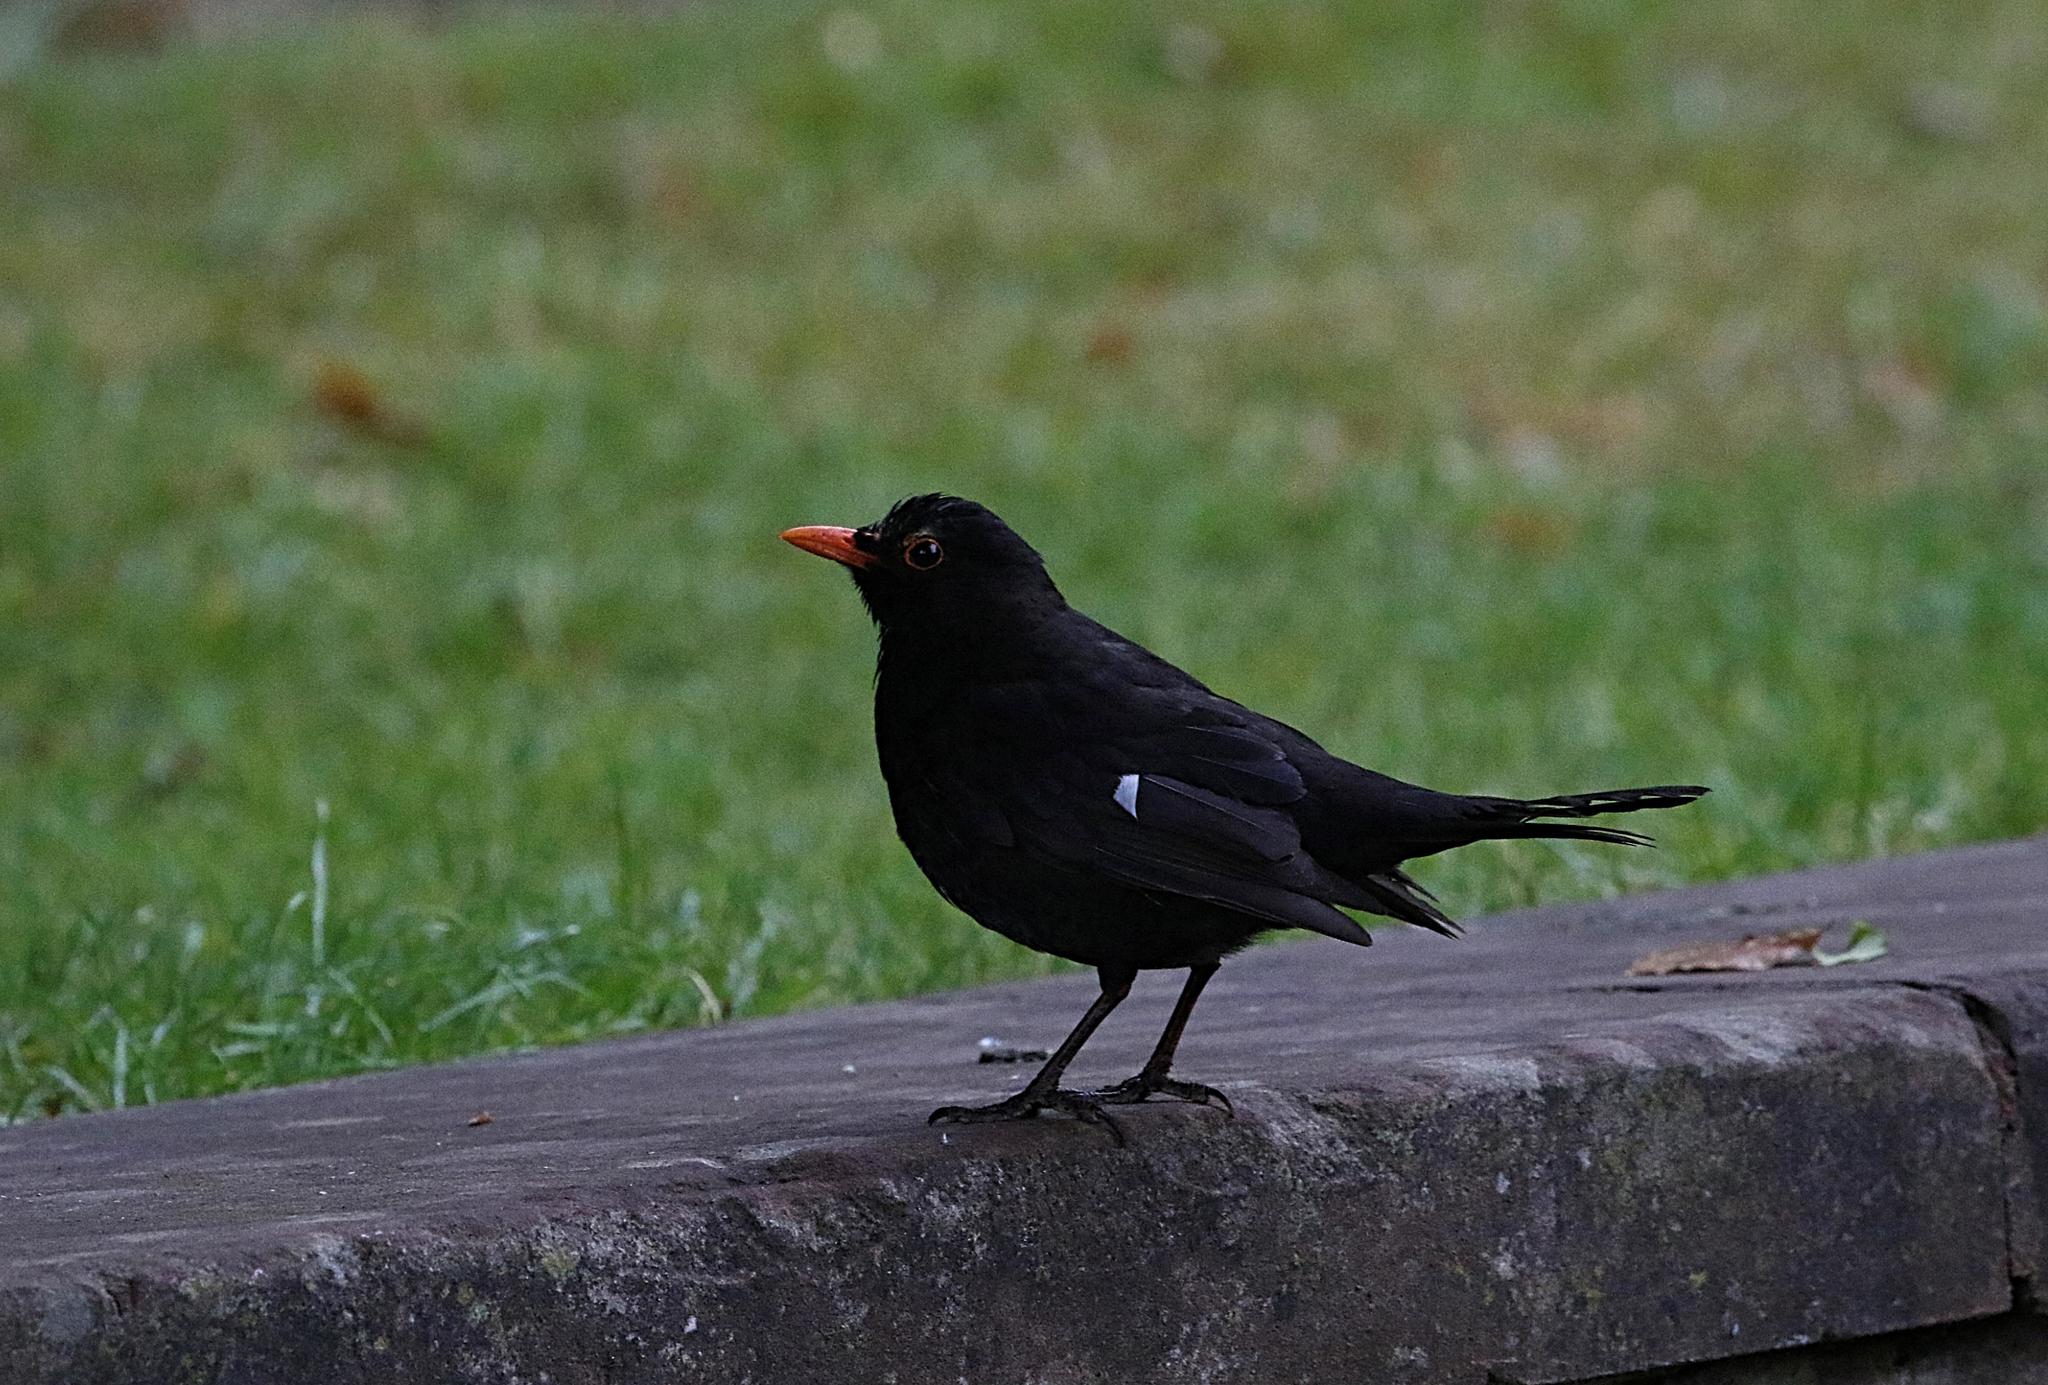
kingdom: Animalia
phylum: Chordata
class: Aves
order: Passeriformes
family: Turdidae
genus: Turdus
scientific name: Turdus merula
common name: Common blackbird
